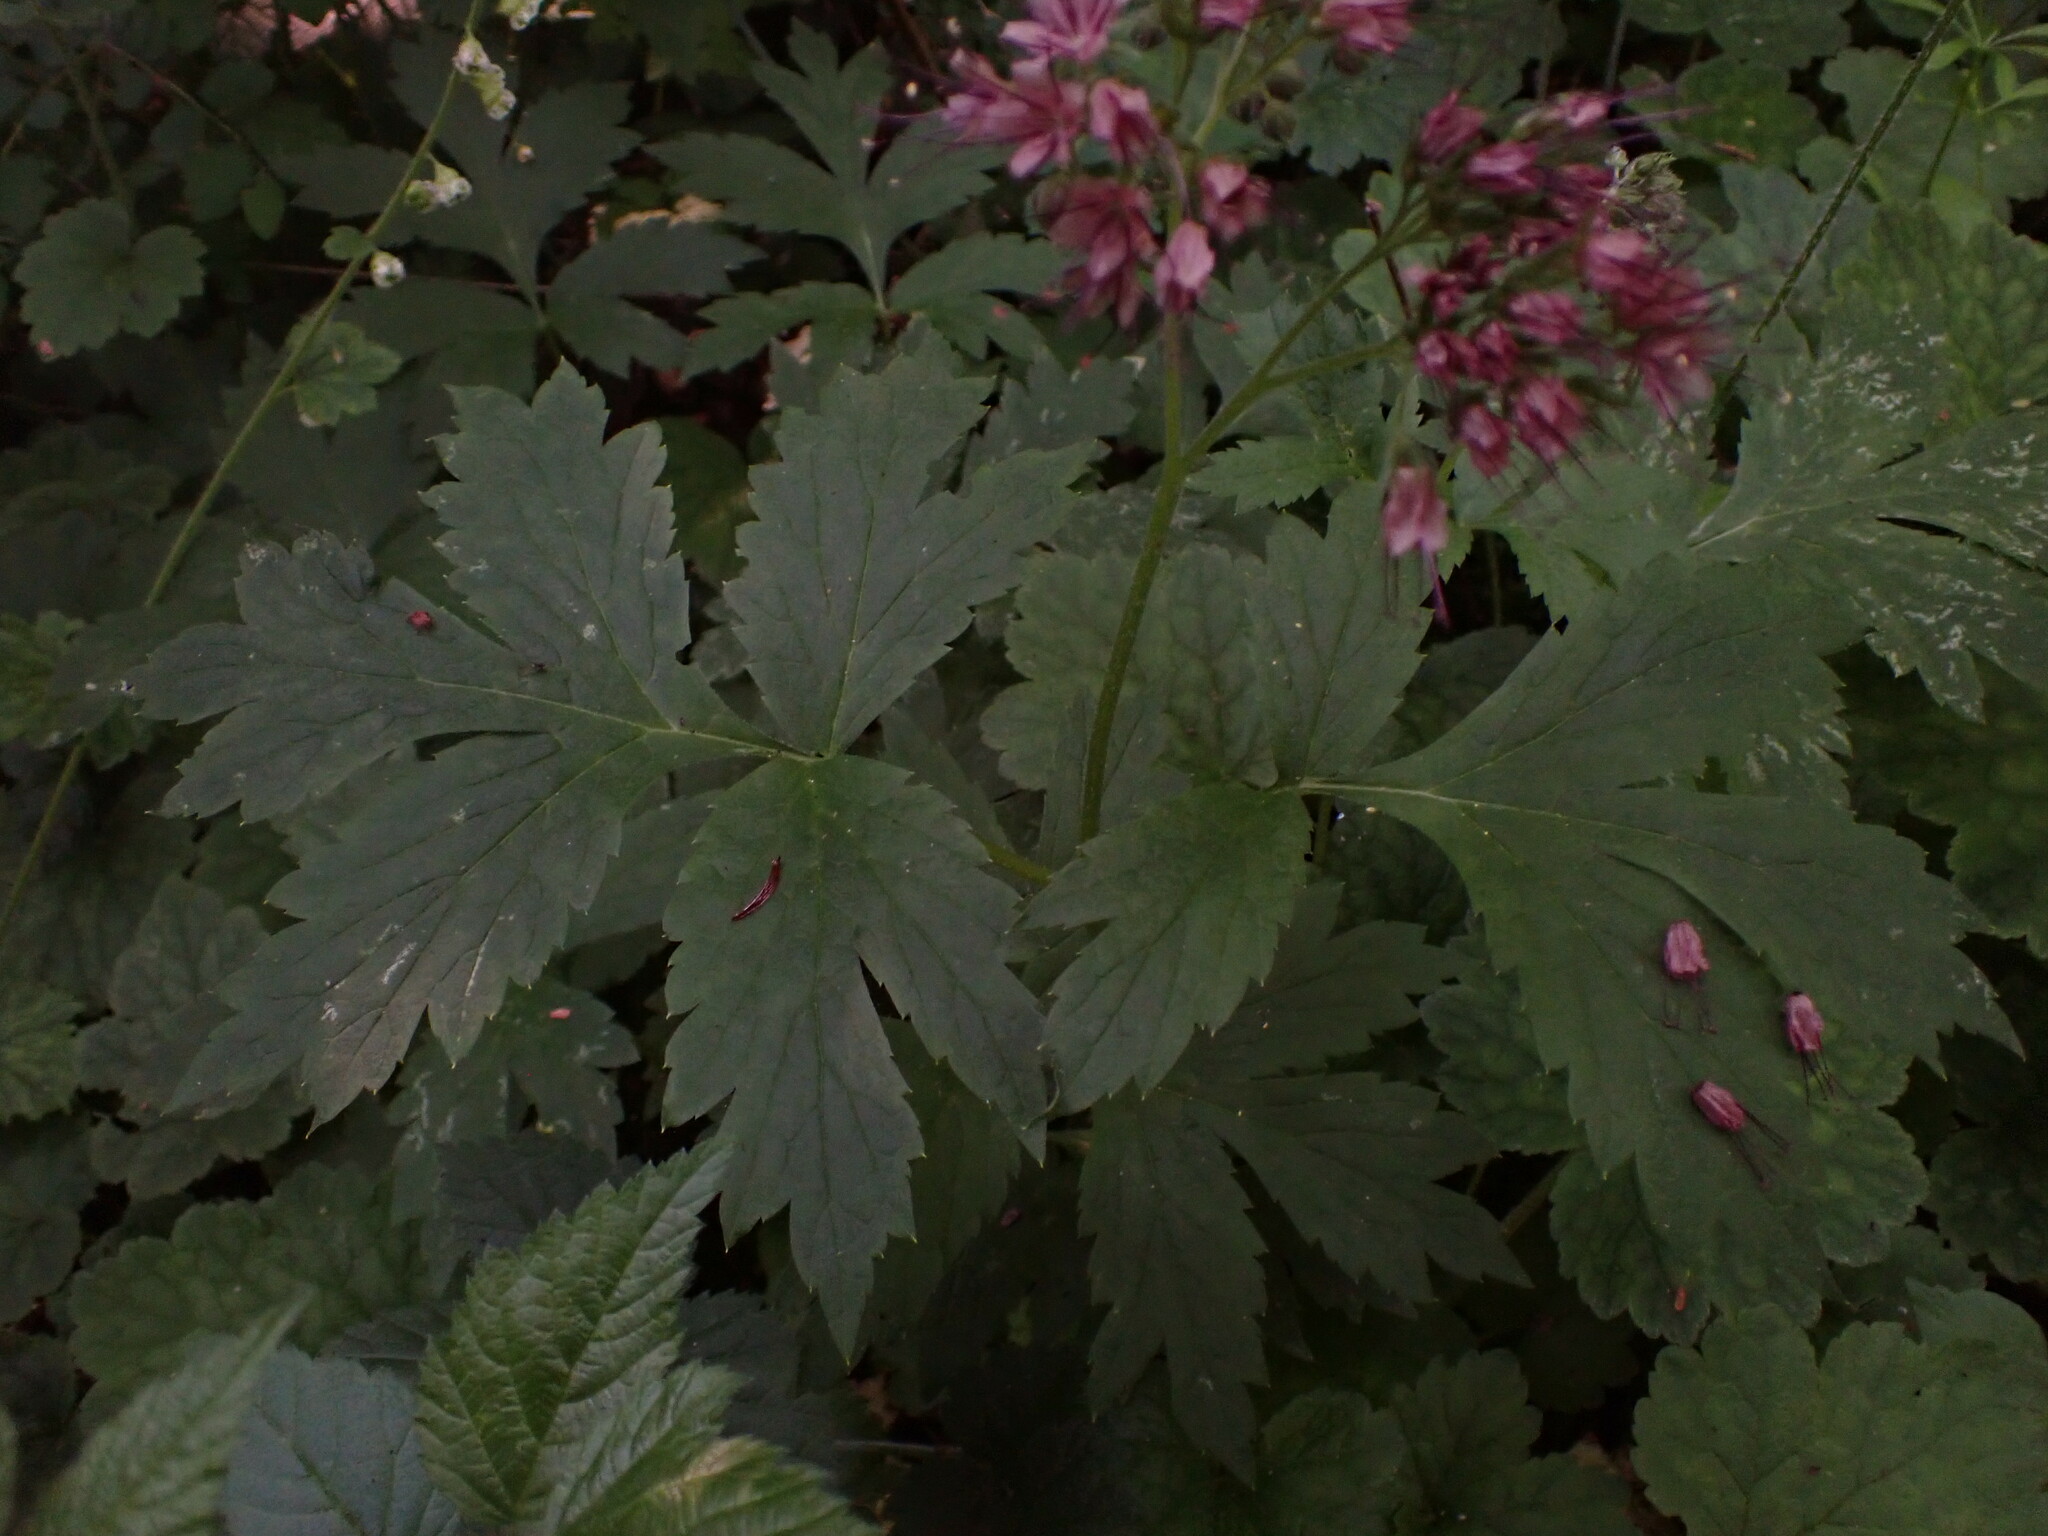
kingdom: Plantae
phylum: Tracheophyta
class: Magnoliopsida
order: Boraginales
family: Hydrophyllaceae
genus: Hydrophyllum
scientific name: Hydrophyllum tenuipes
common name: Pacific waterleaf
